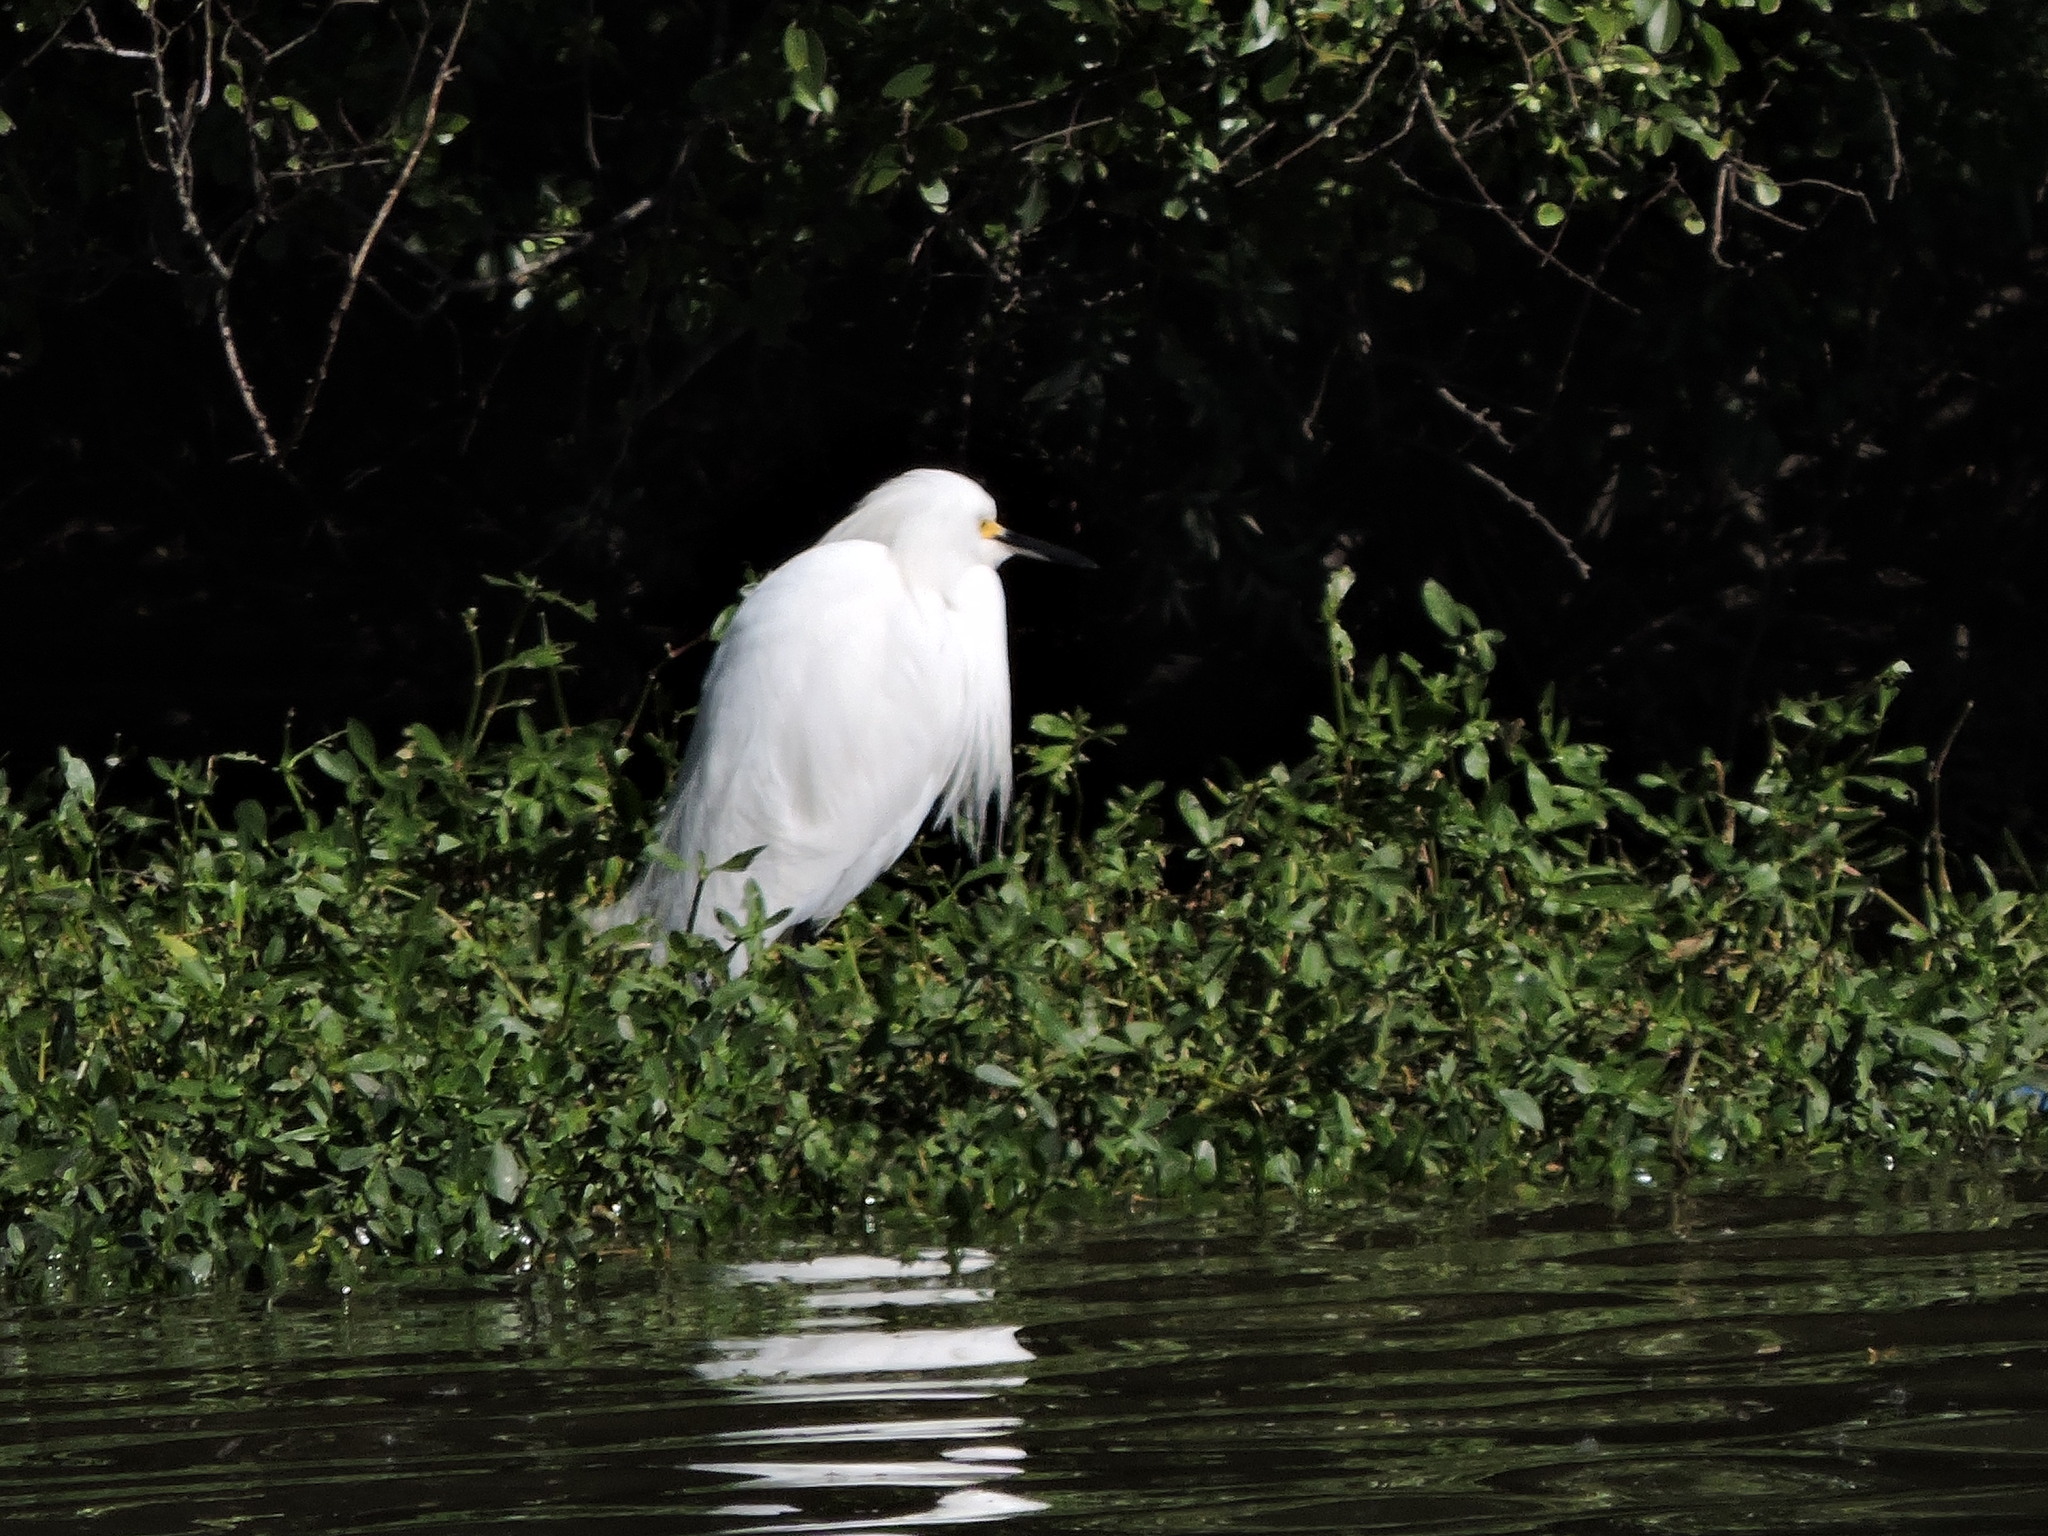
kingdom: Animalia
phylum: Chordata
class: Aves
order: Pelecaniformes
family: Ardeidae
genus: Egretta
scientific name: Egretta thula
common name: Snowy egret
